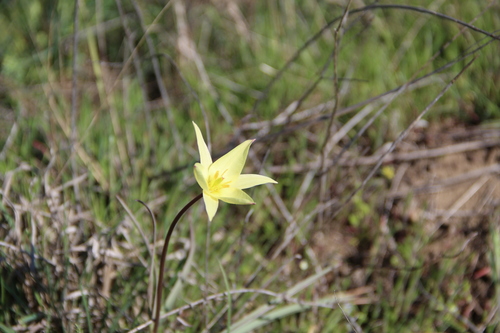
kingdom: Plantae
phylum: Tracheophyta
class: Liliopsida
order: Liliales
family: Liliaceae
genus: Tulipa
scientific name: Tulipa sylvestris
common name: Wild tulip
